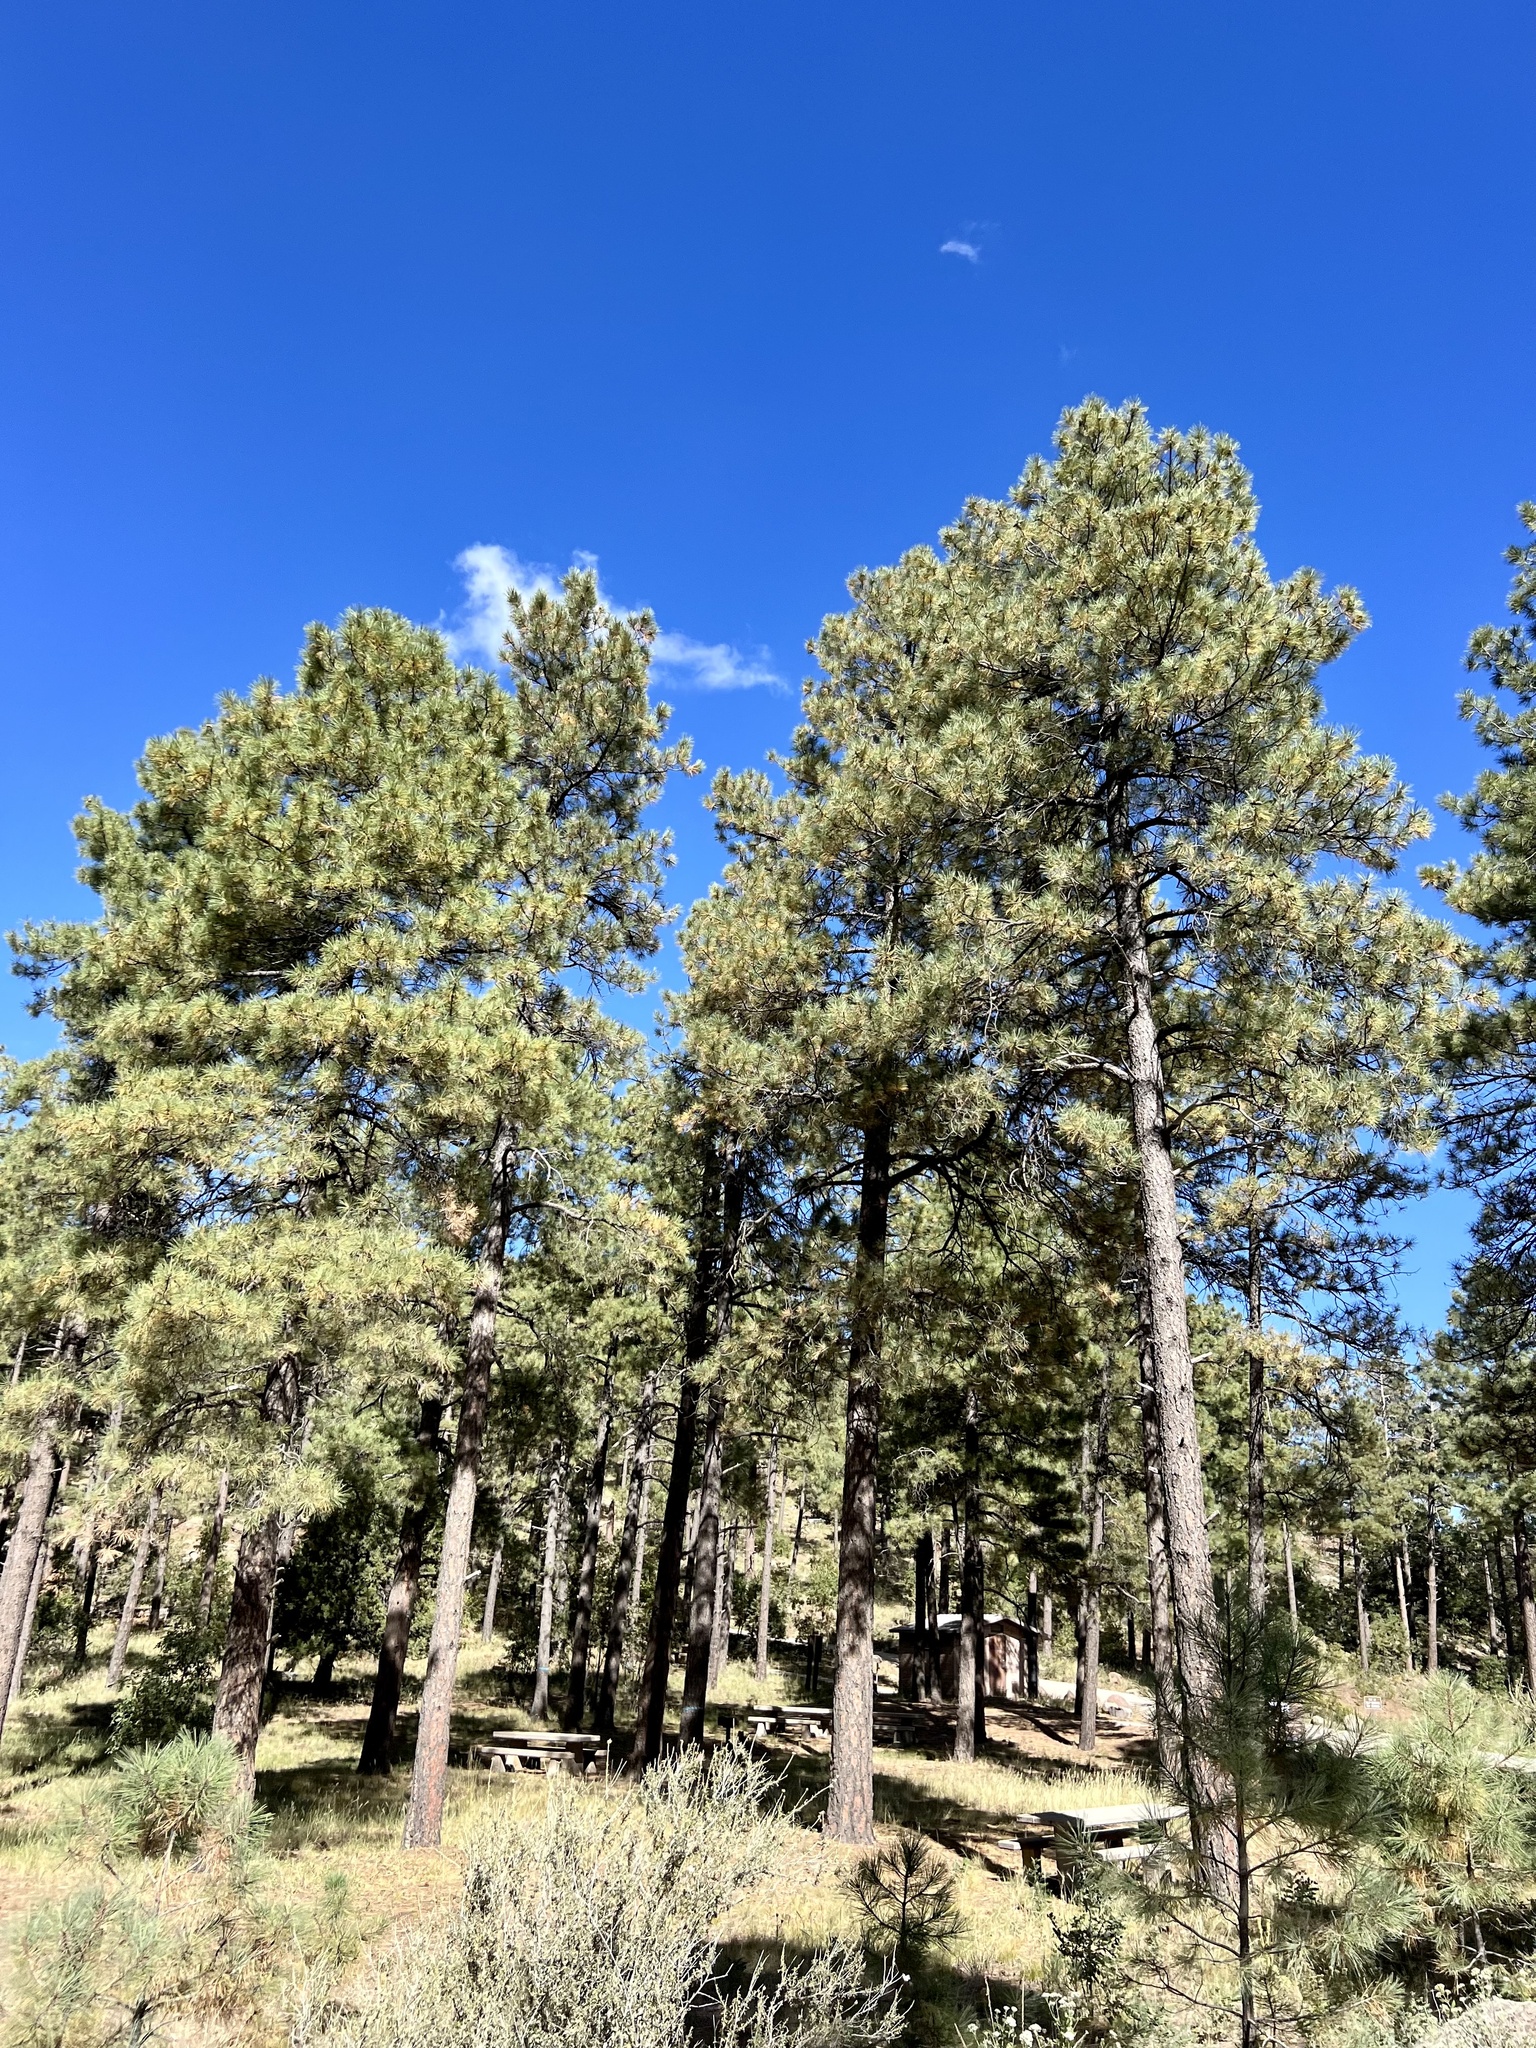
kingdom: Plantae
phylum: Tracheophyta
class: Pinopsida
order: Pinales
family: Pinaceae
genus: Pinus
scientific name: Pinus ponderosa
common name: Western yellow-pine
